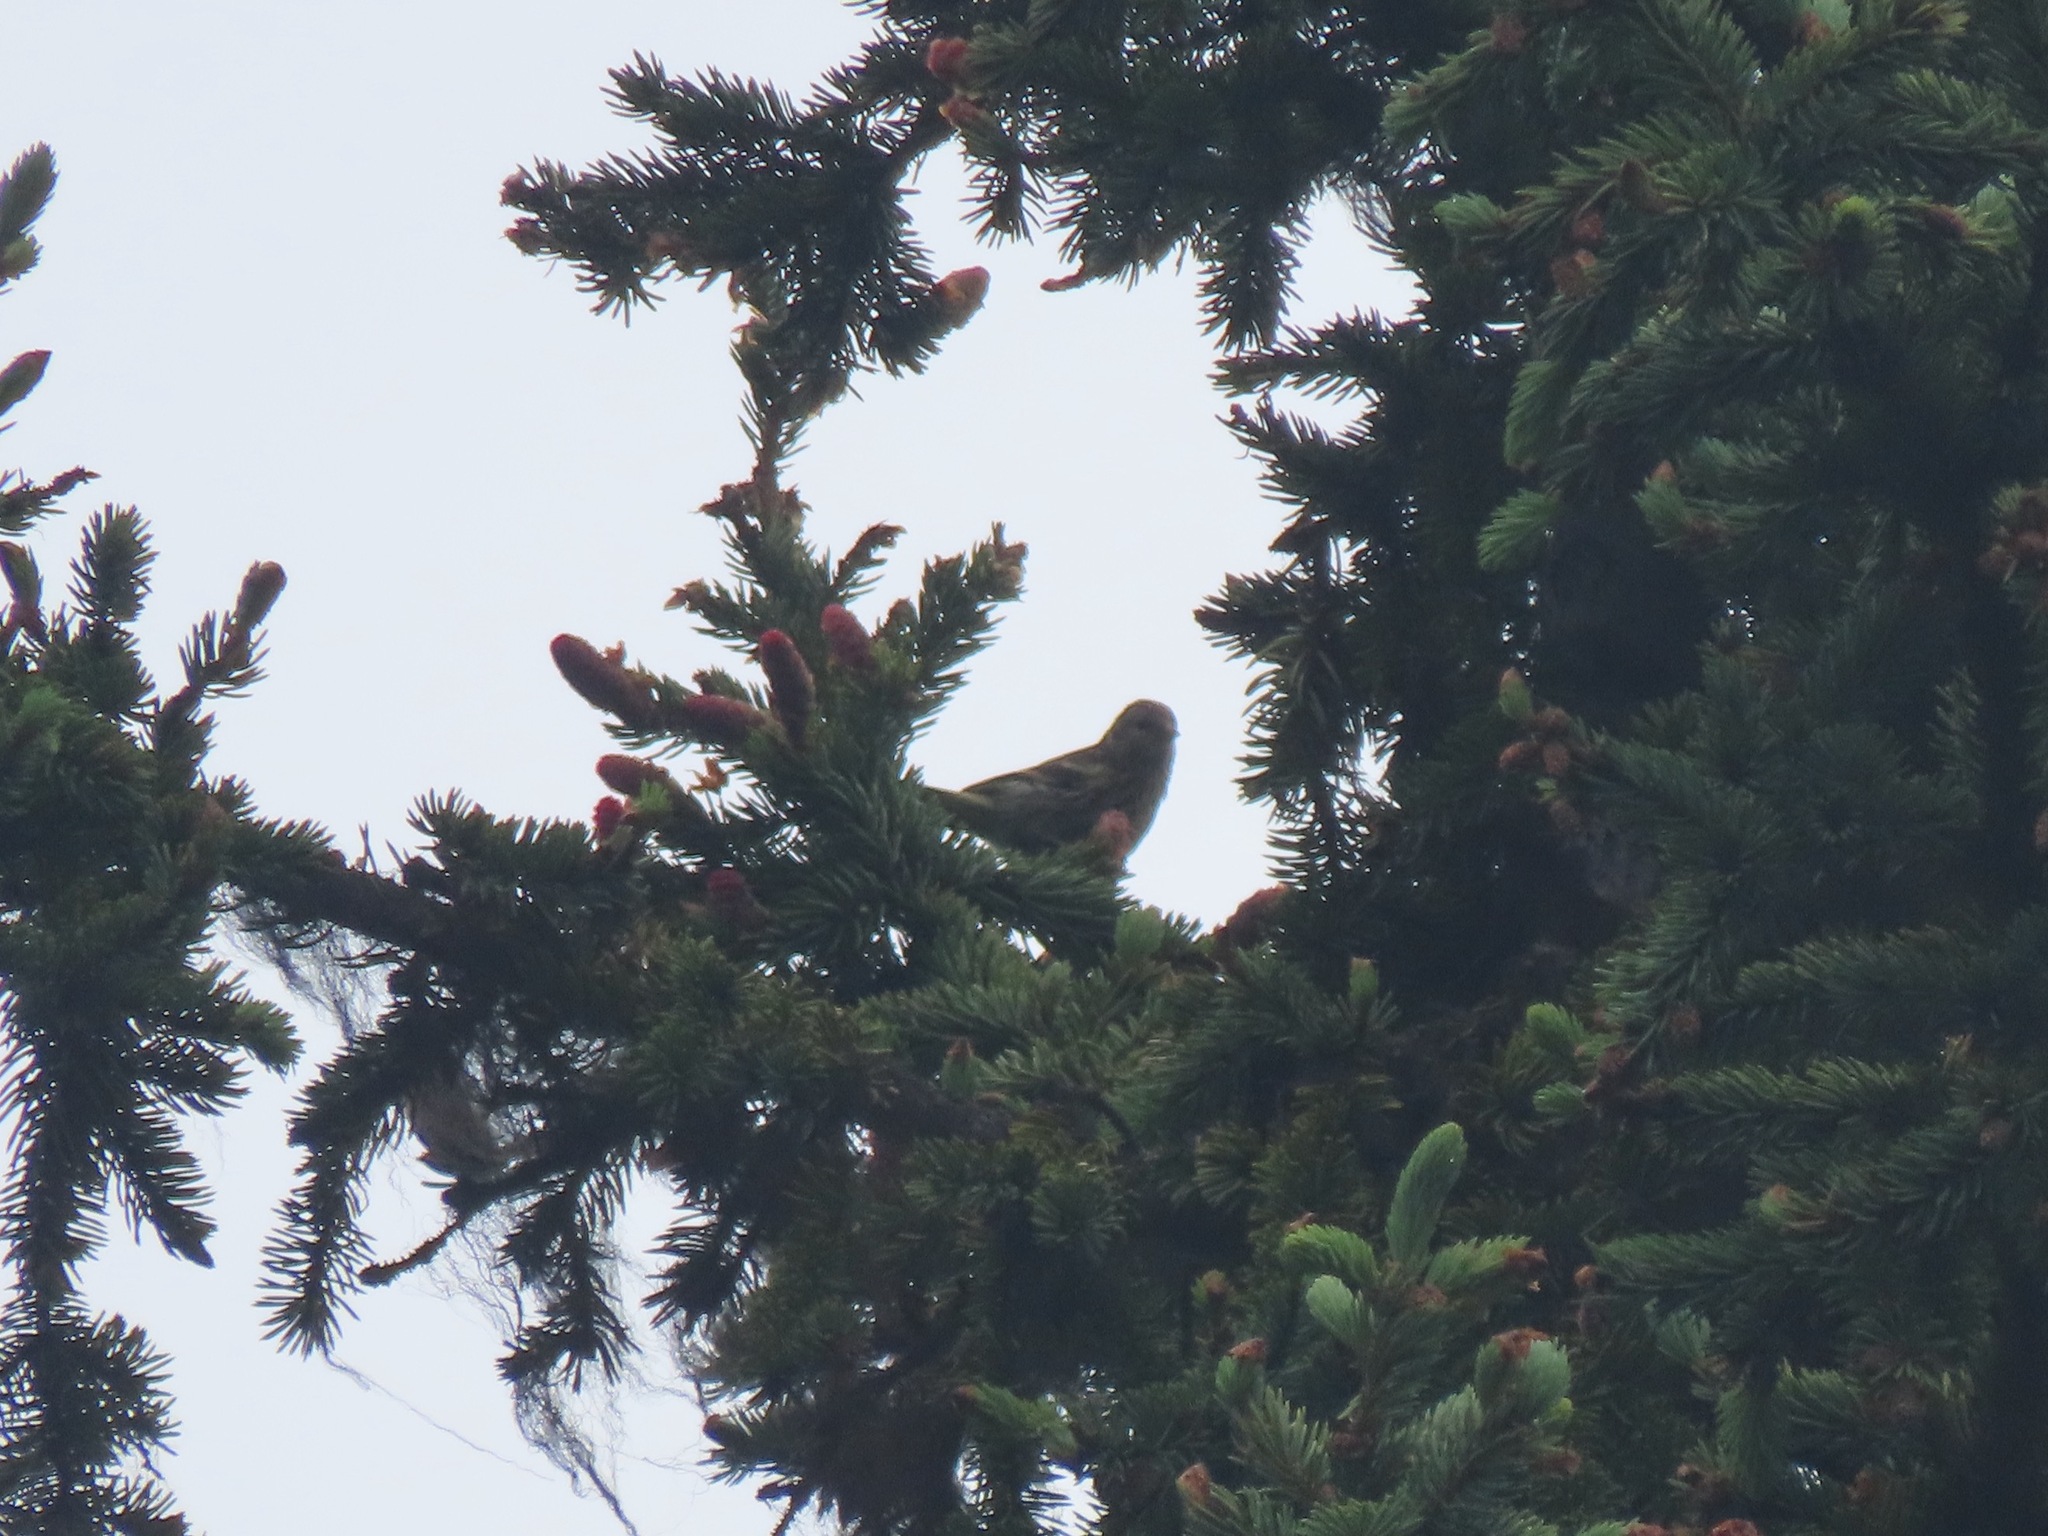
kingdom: Animalia
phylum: Chordata
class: Aves
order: Passeriformes
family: Fringillidae
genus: Spinus
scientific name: Spinus pinus
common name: Pine siskin
